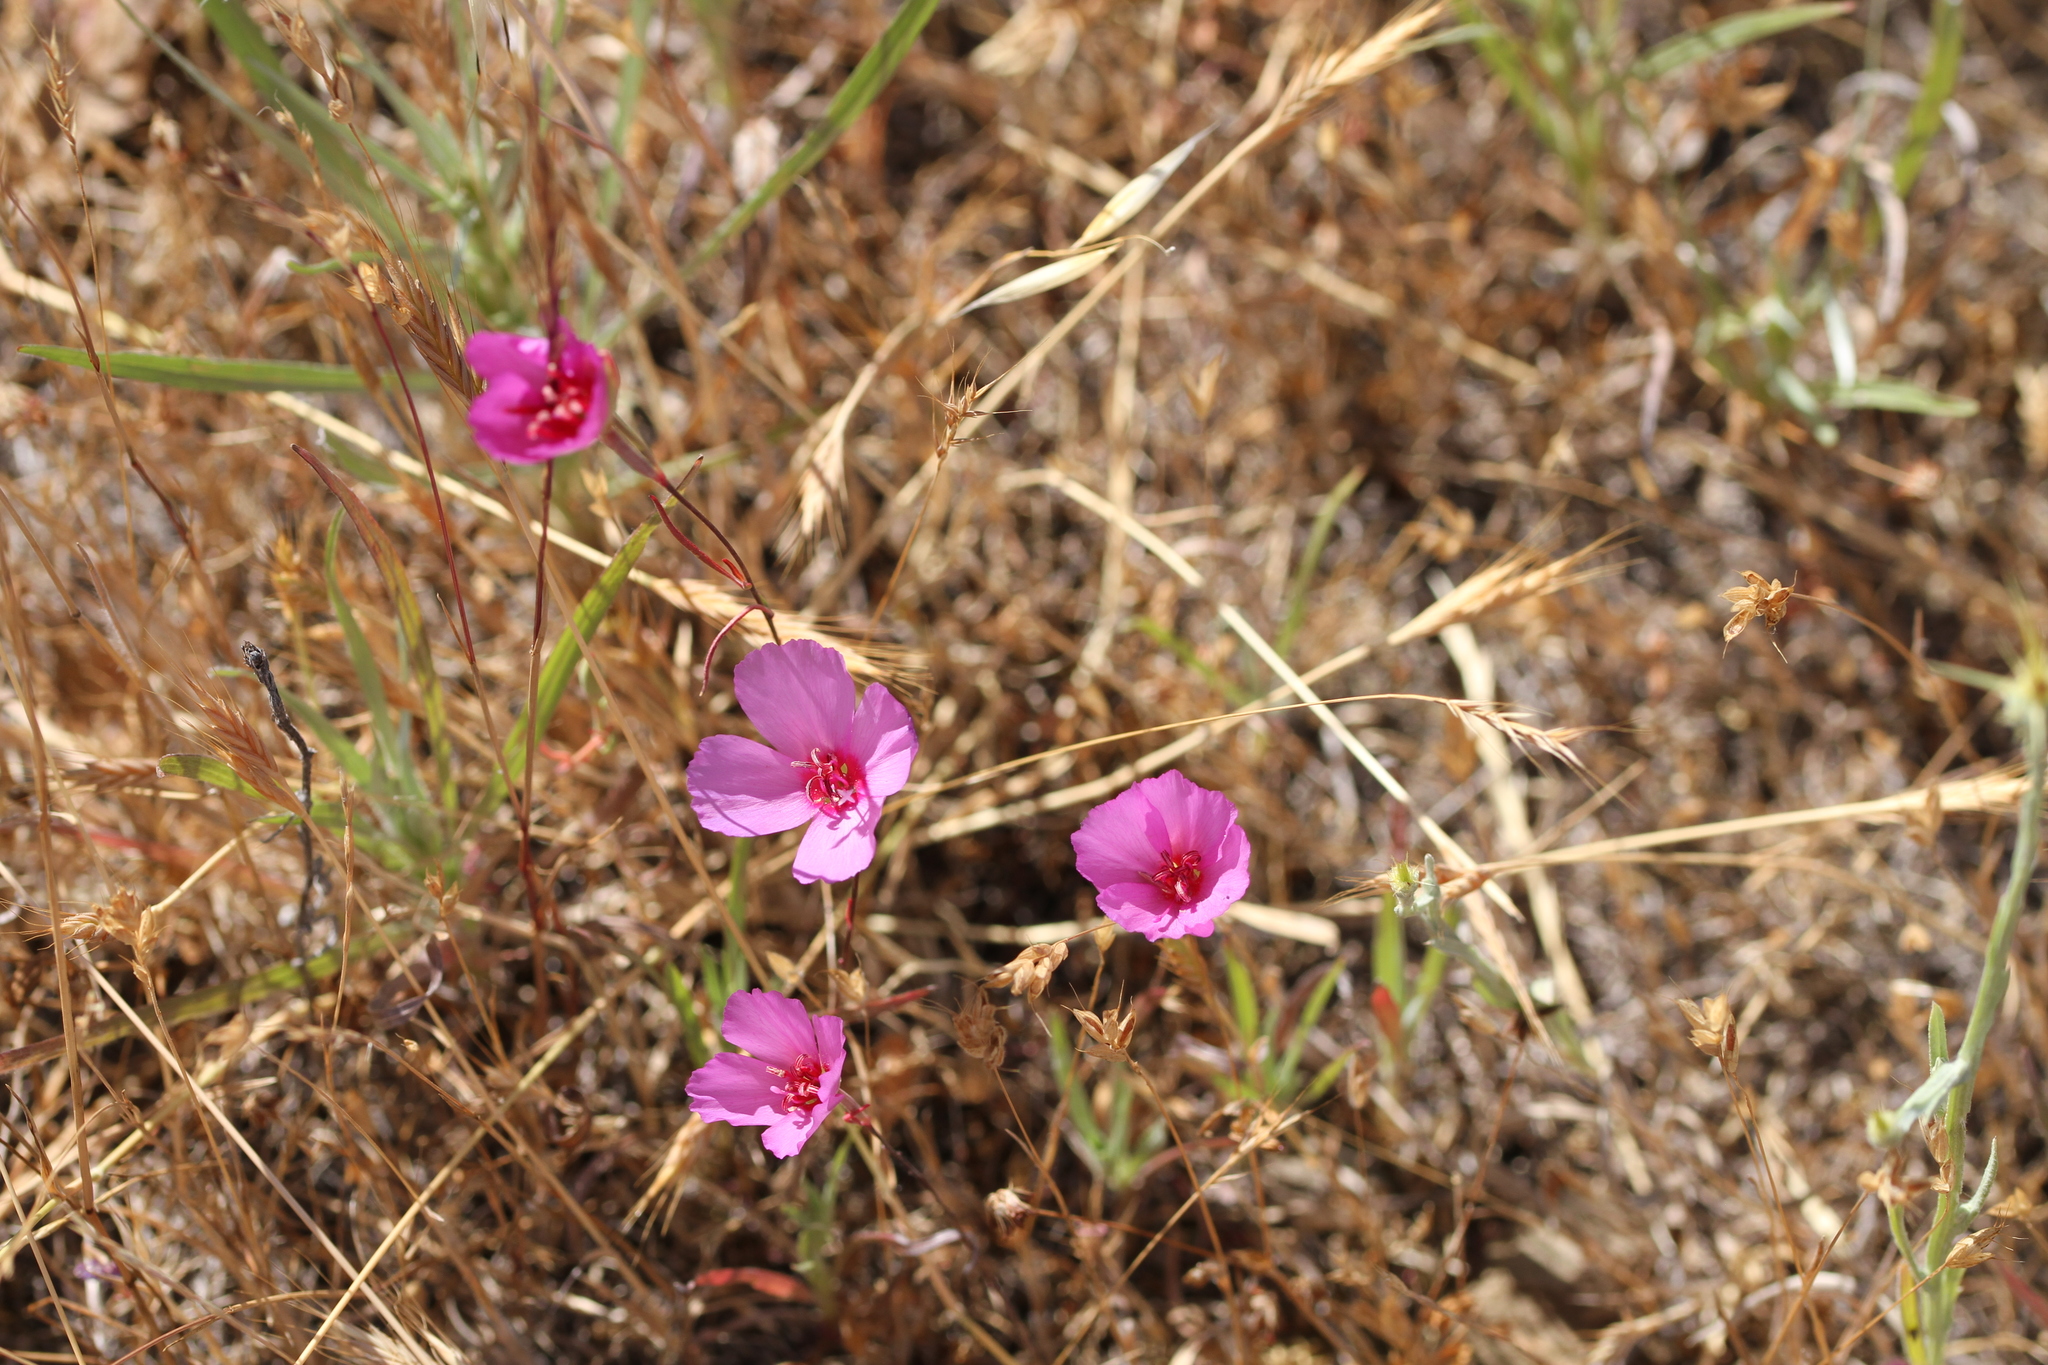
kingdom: Plantae
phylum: Tracheophyta
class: Magnoliopsida
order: Myrtales
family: Onagraceae
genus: Clarkia
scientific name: Clarkia rubicunda
